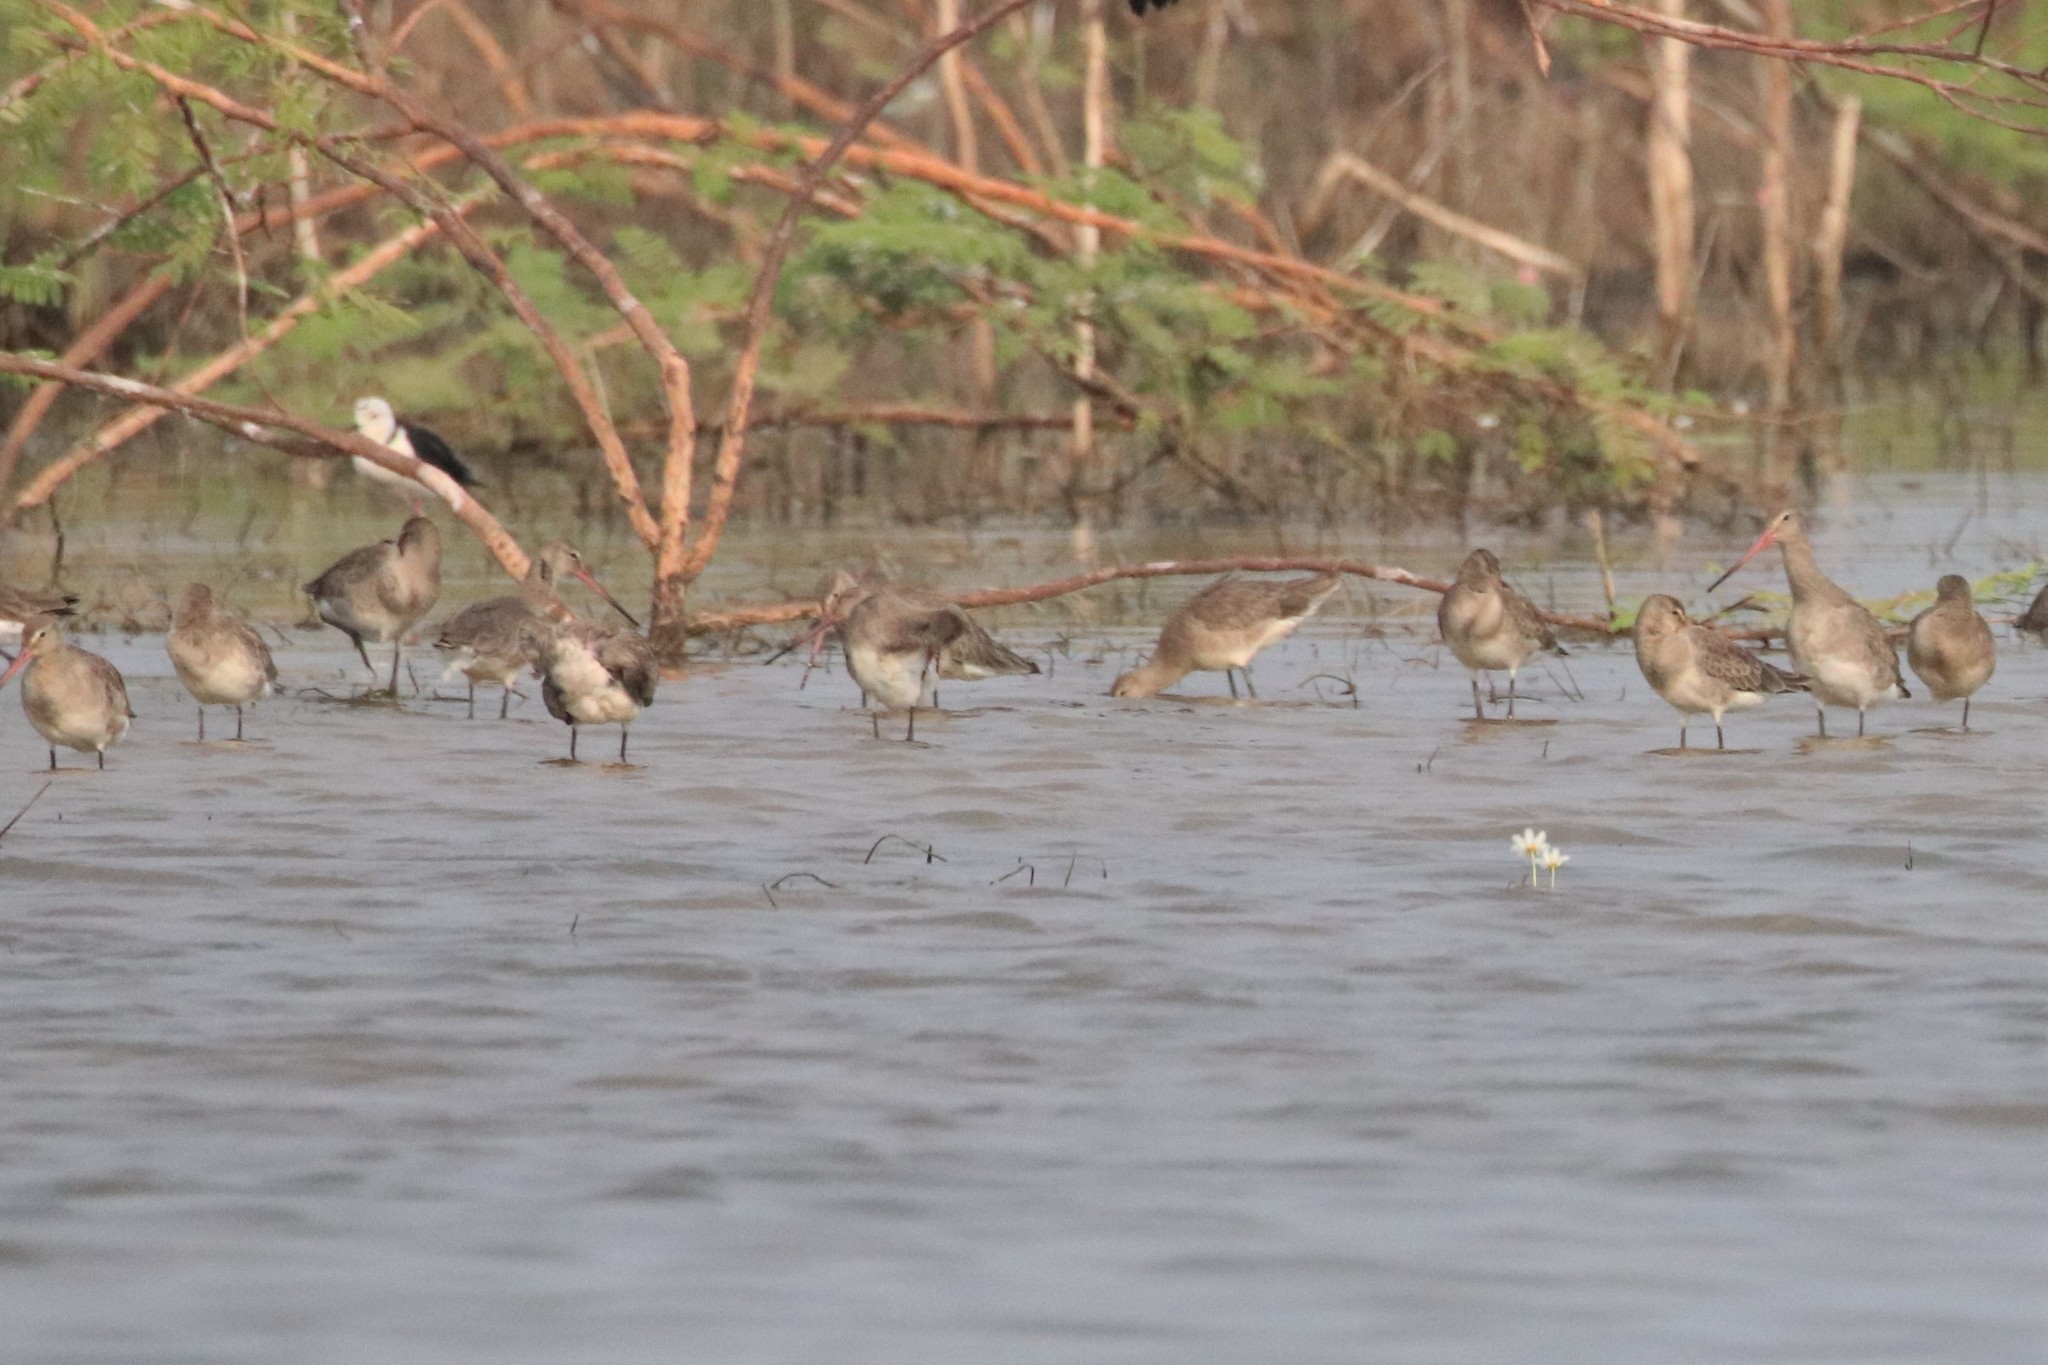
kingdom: Animalia
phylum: Chordata
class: Aves
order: Charadriiformes
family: Scolopacidae
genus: Limosa
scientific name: Limosa limosa
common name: Black-tailed godwit
